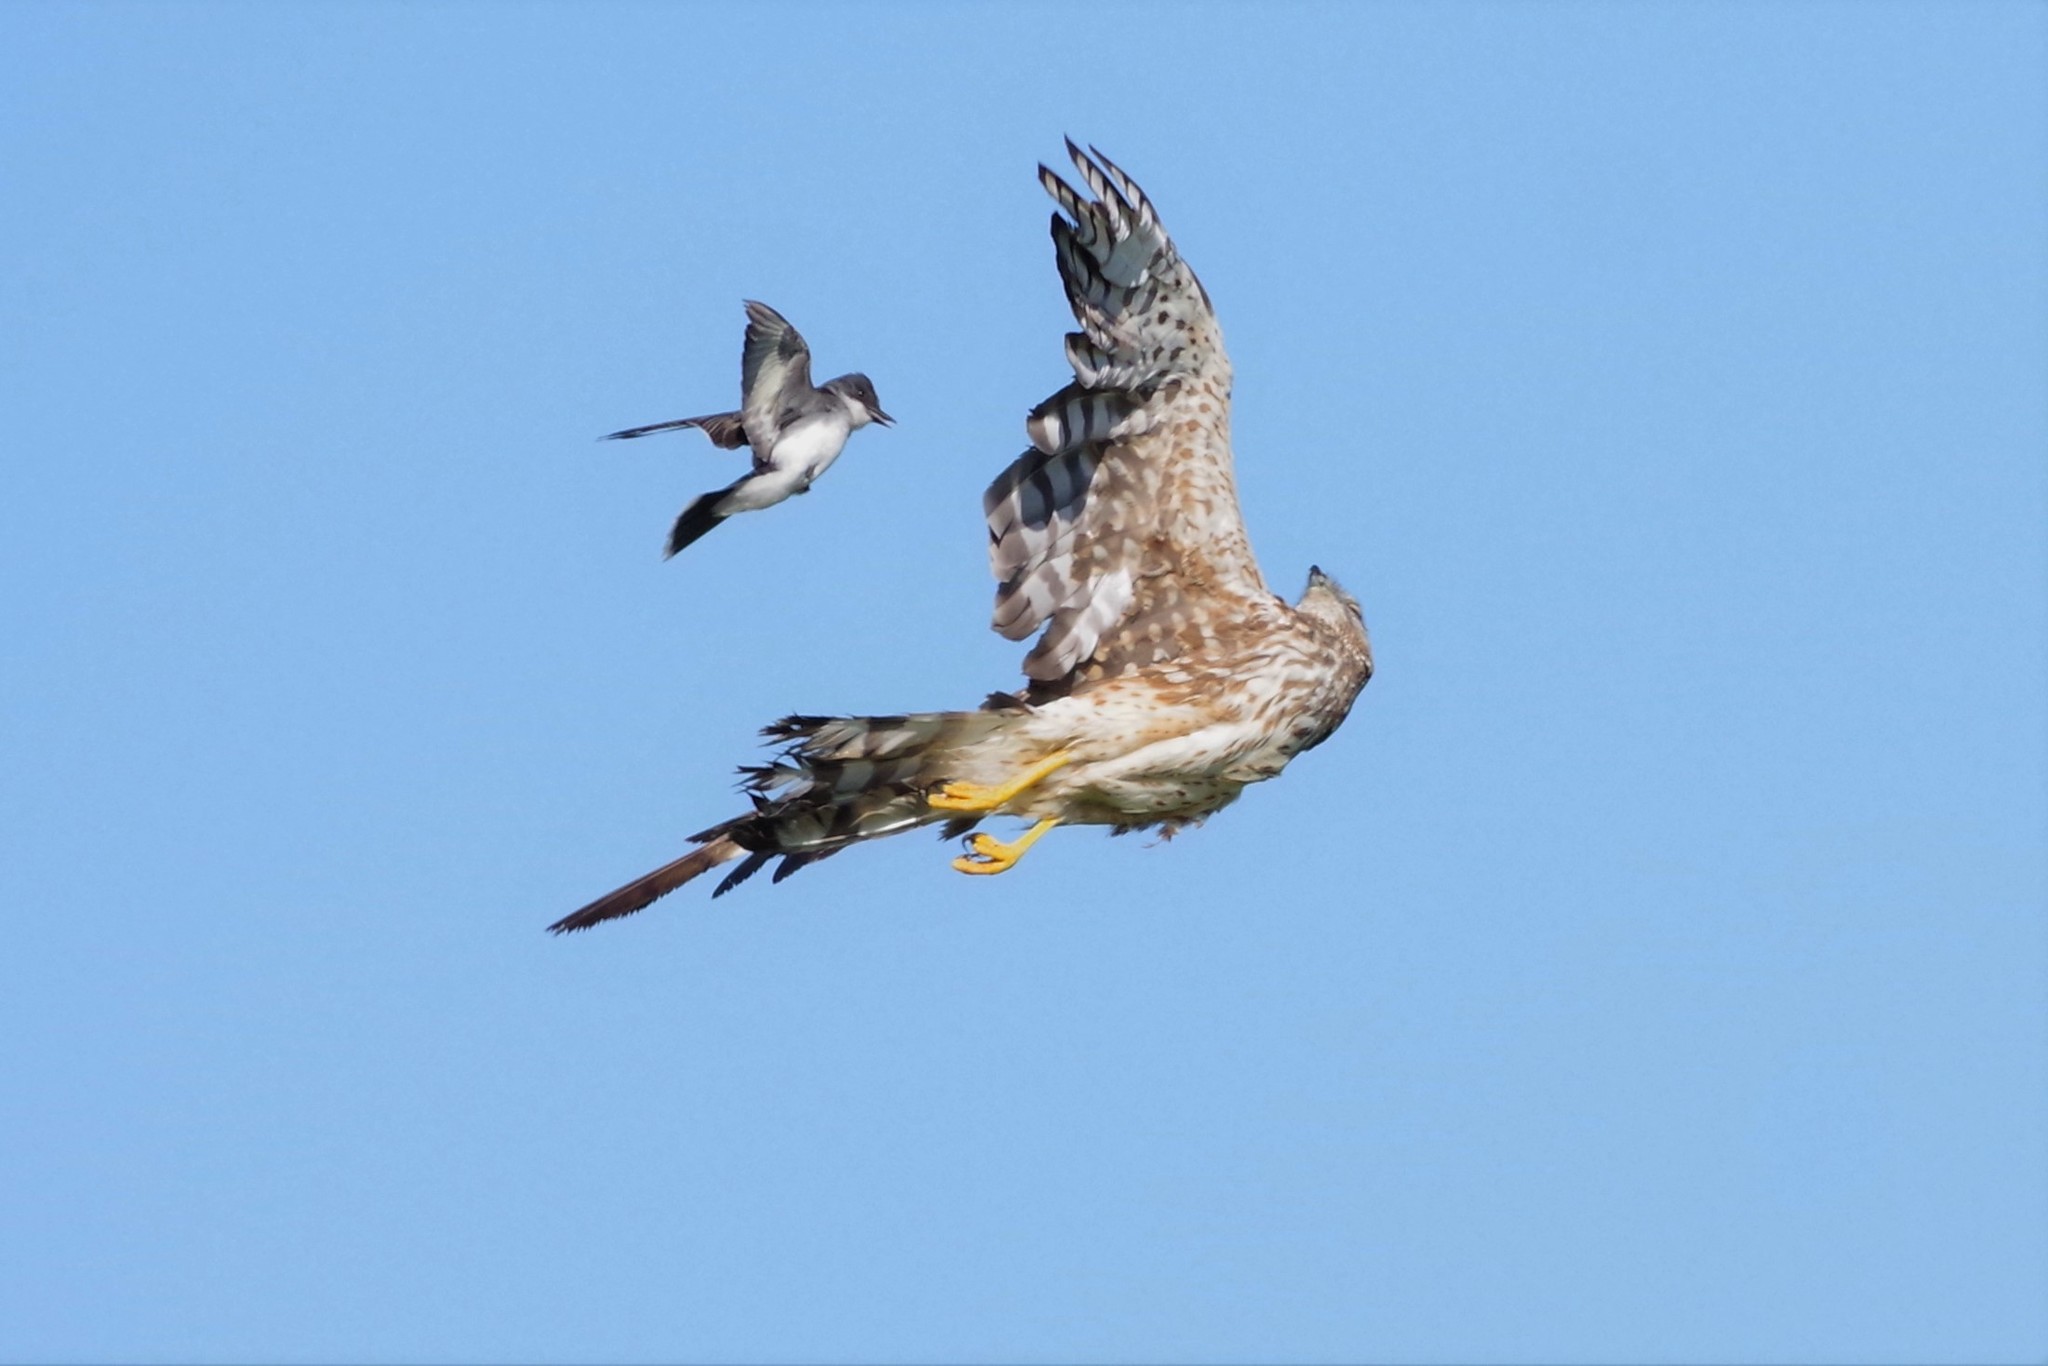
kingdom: Animalia
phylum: Chordata
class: Aves
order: Passeriformes
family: Tyrannidae
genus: Tyrannus
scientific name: Tyrannus tyrannus
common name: Eastern kingbird
